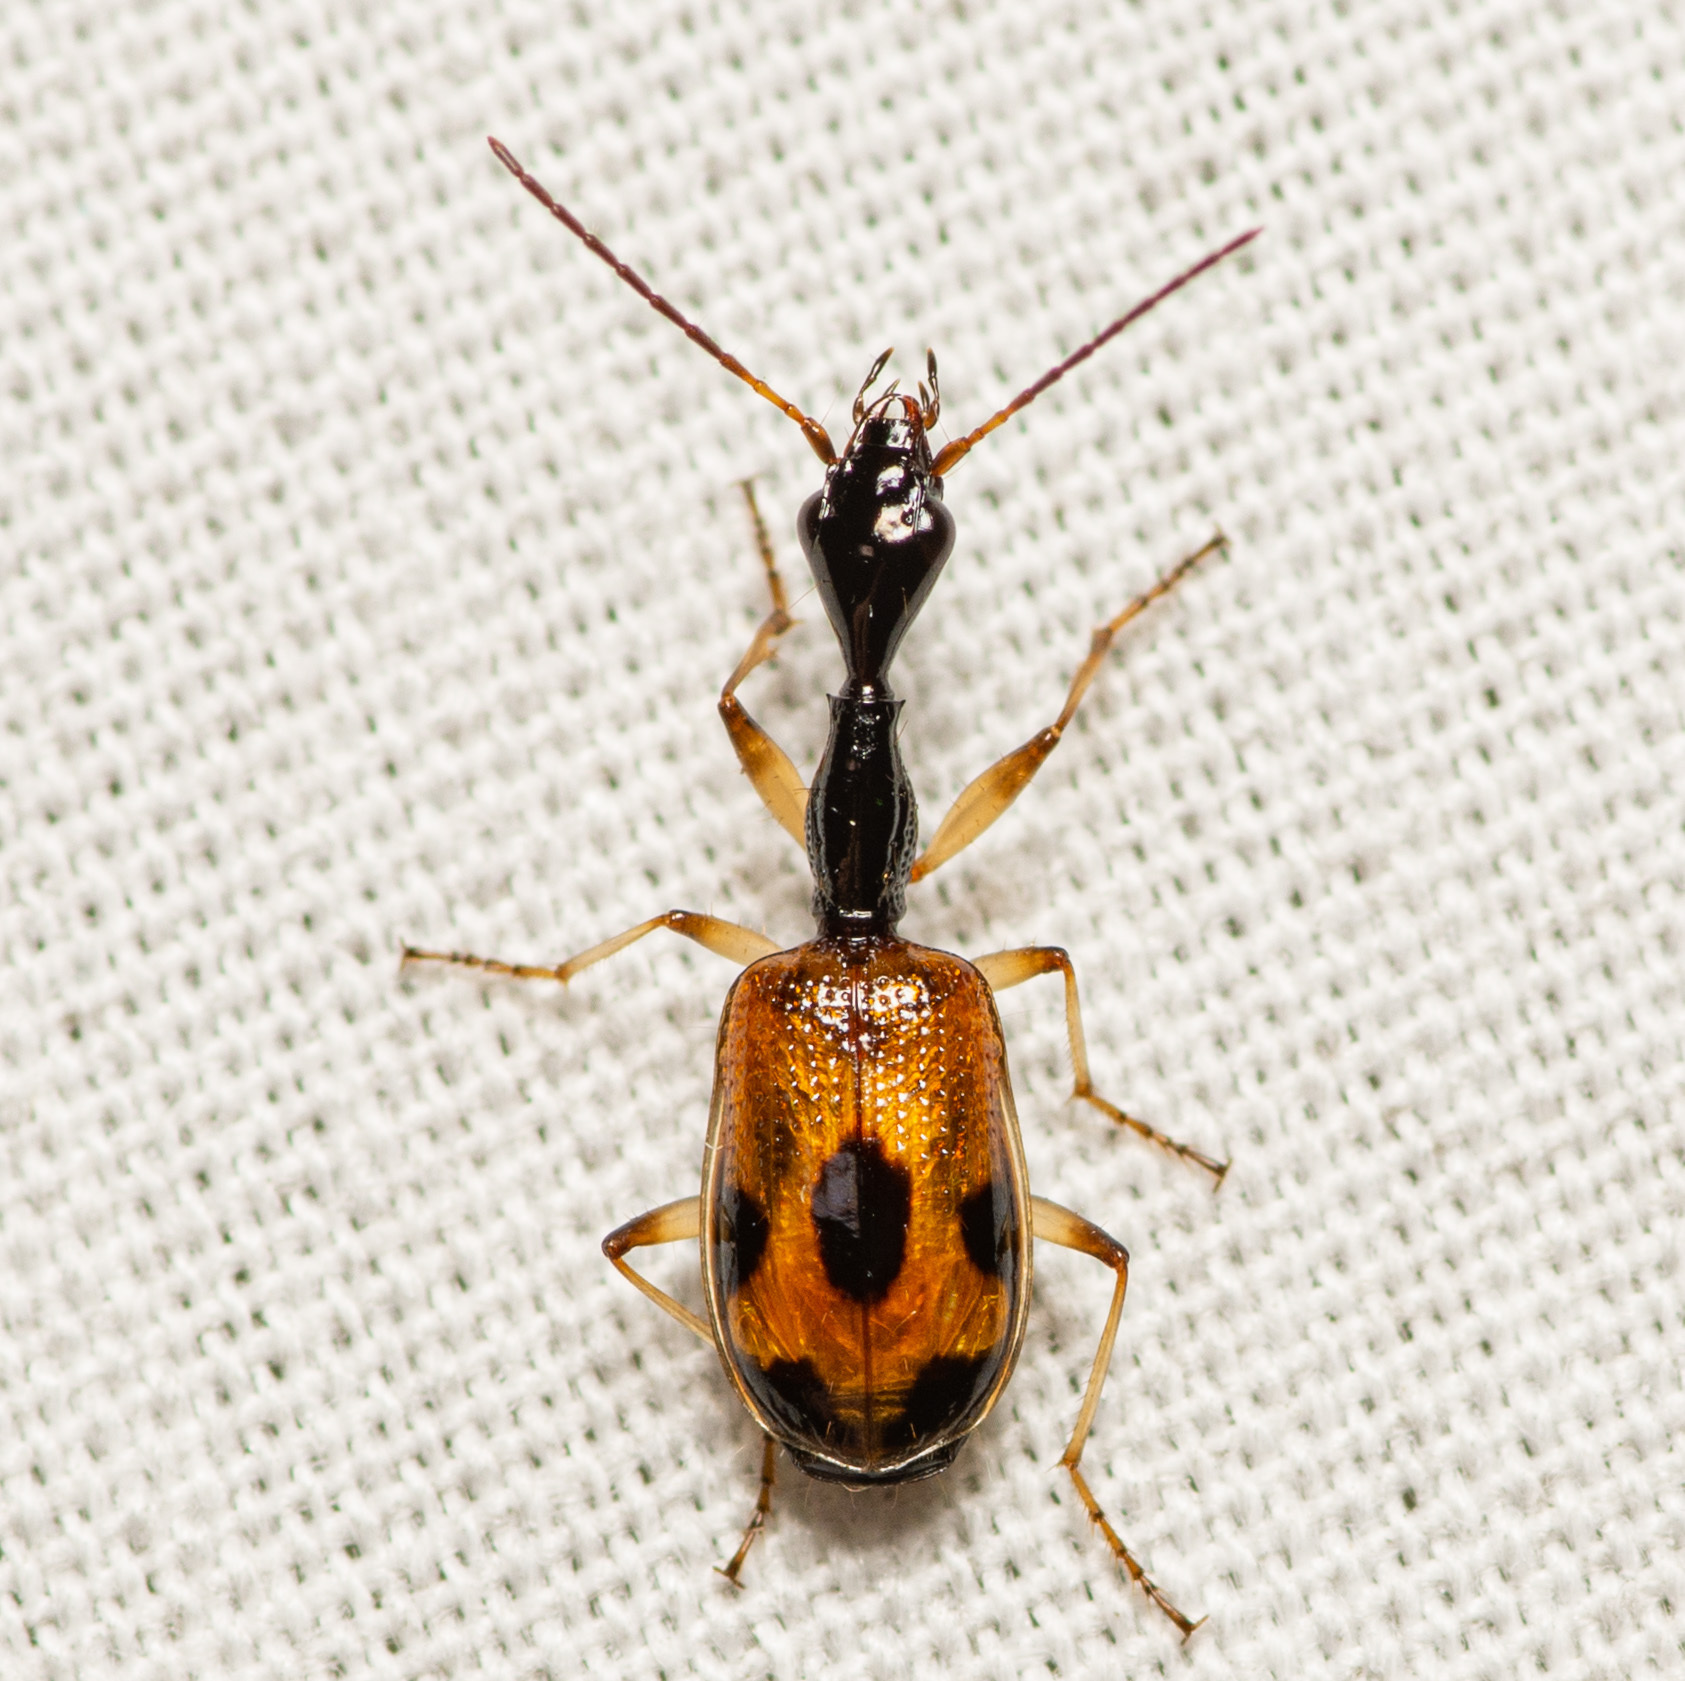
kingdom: Animalia
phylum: Arthropoda
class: Insecta
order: Coleoptera
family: Carabidae
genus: Colliuris
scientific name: Colliuris pensylvanica
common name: Long-necked ground beetle
